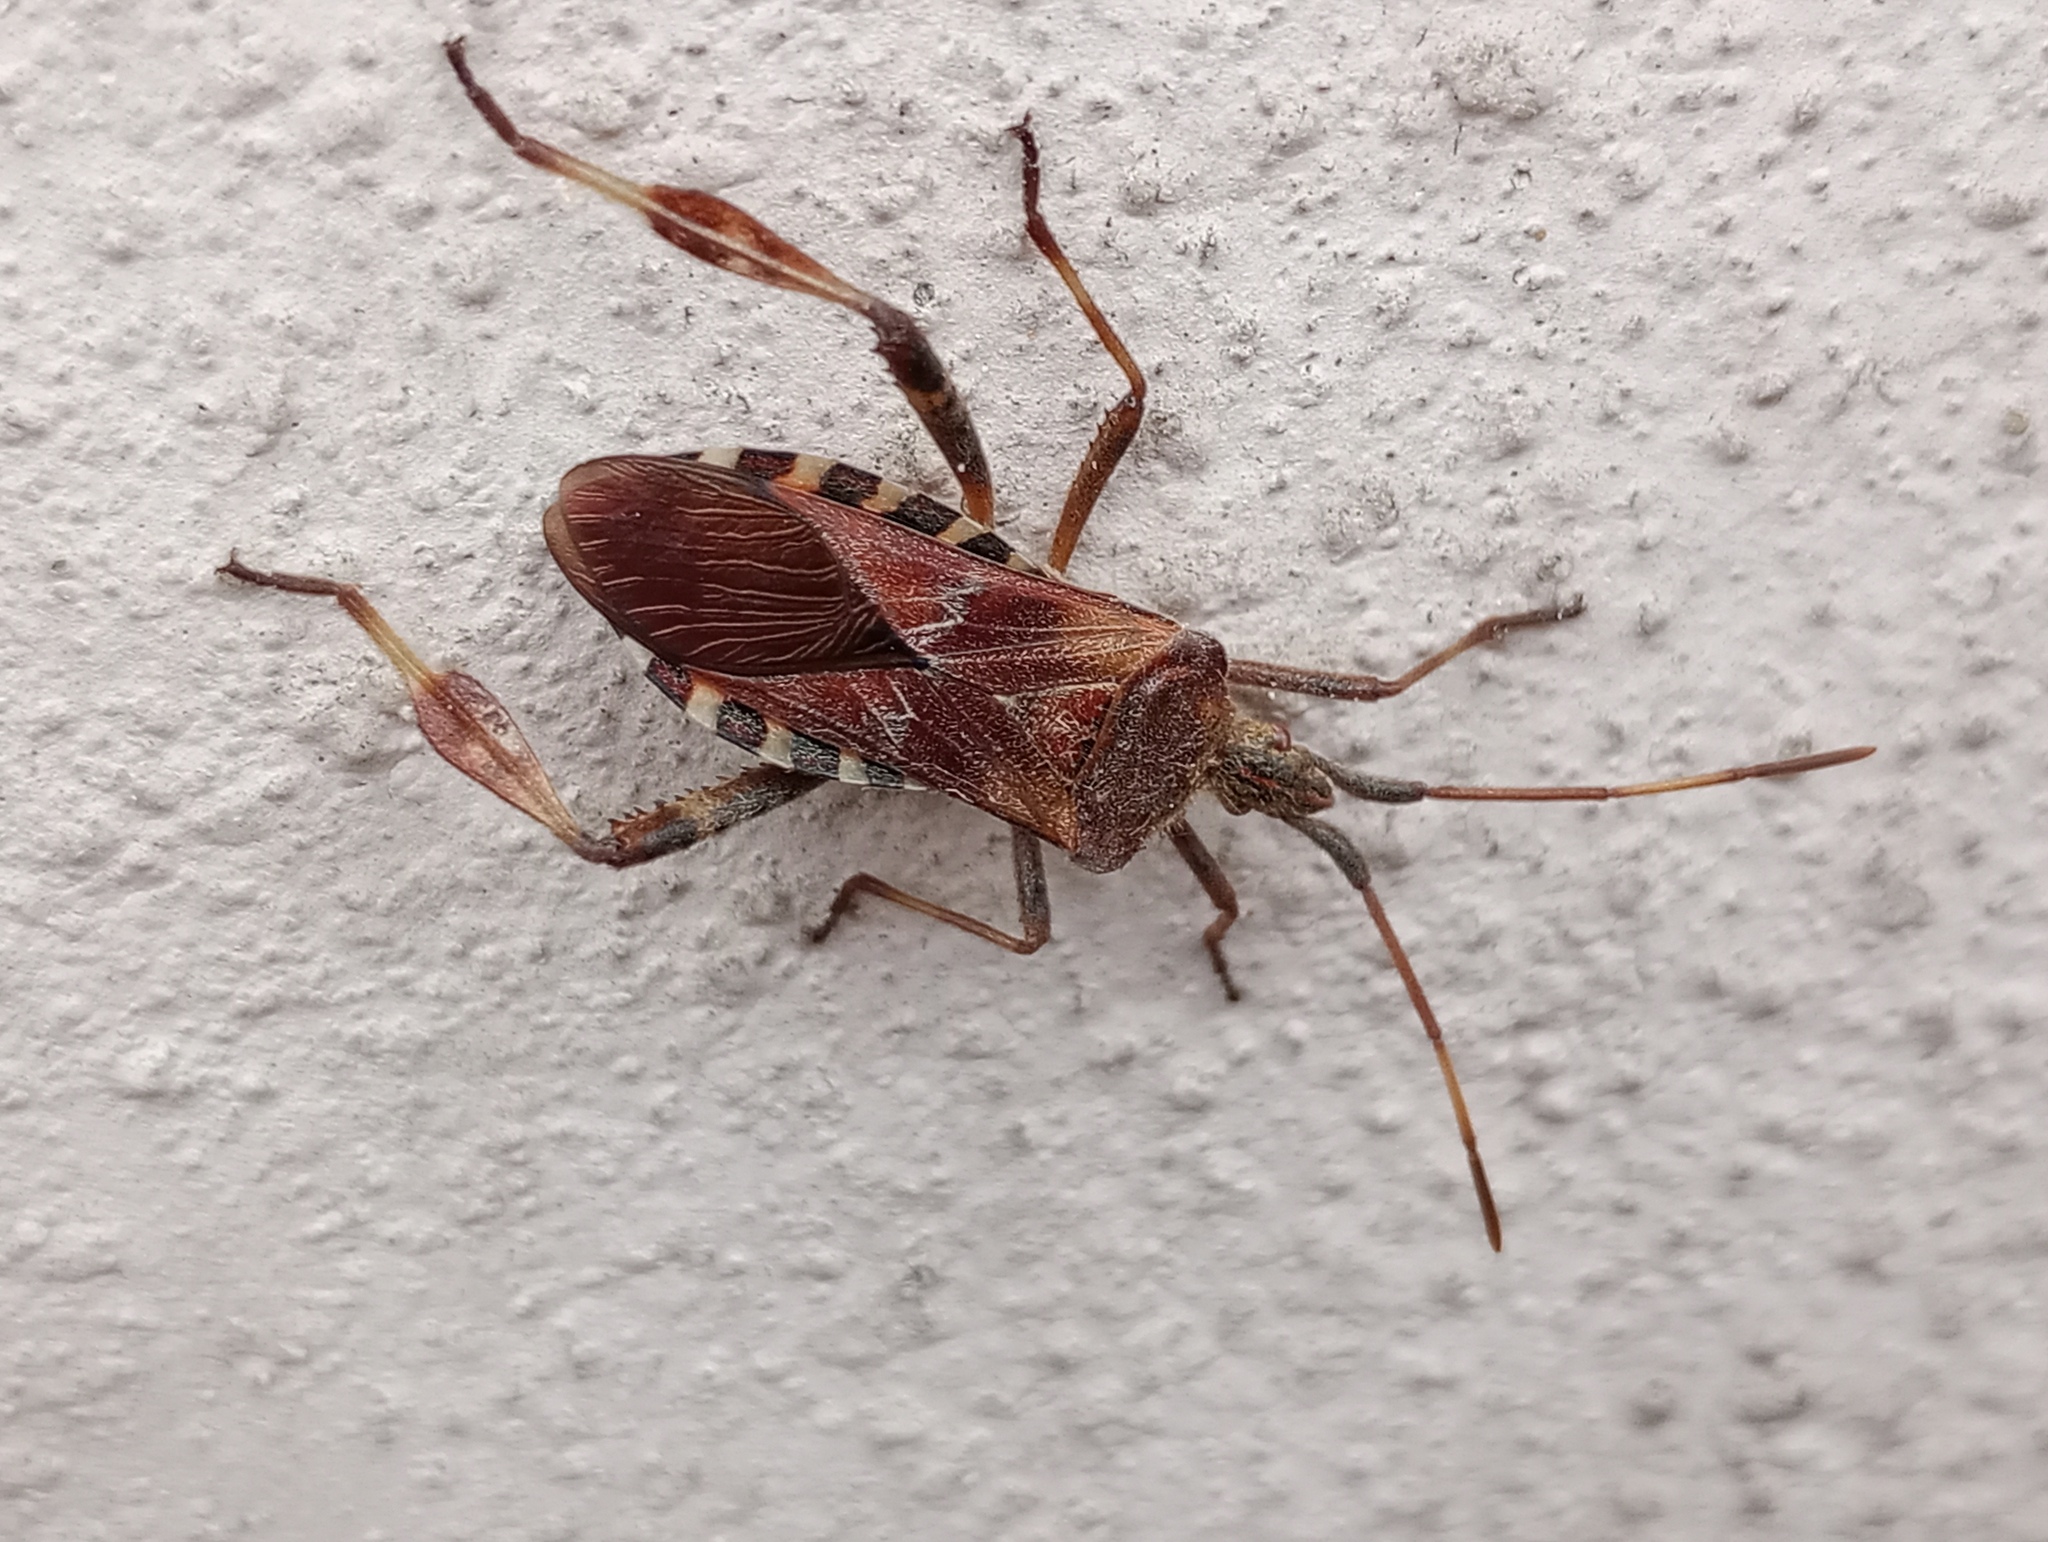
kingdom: Animalia
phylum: Arthropoda
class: Insecta
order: Hemiptera
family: Coreidae
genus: Leptoglossus
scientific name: Leptoglossus occidentalis
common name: Western conifer-seed bug
